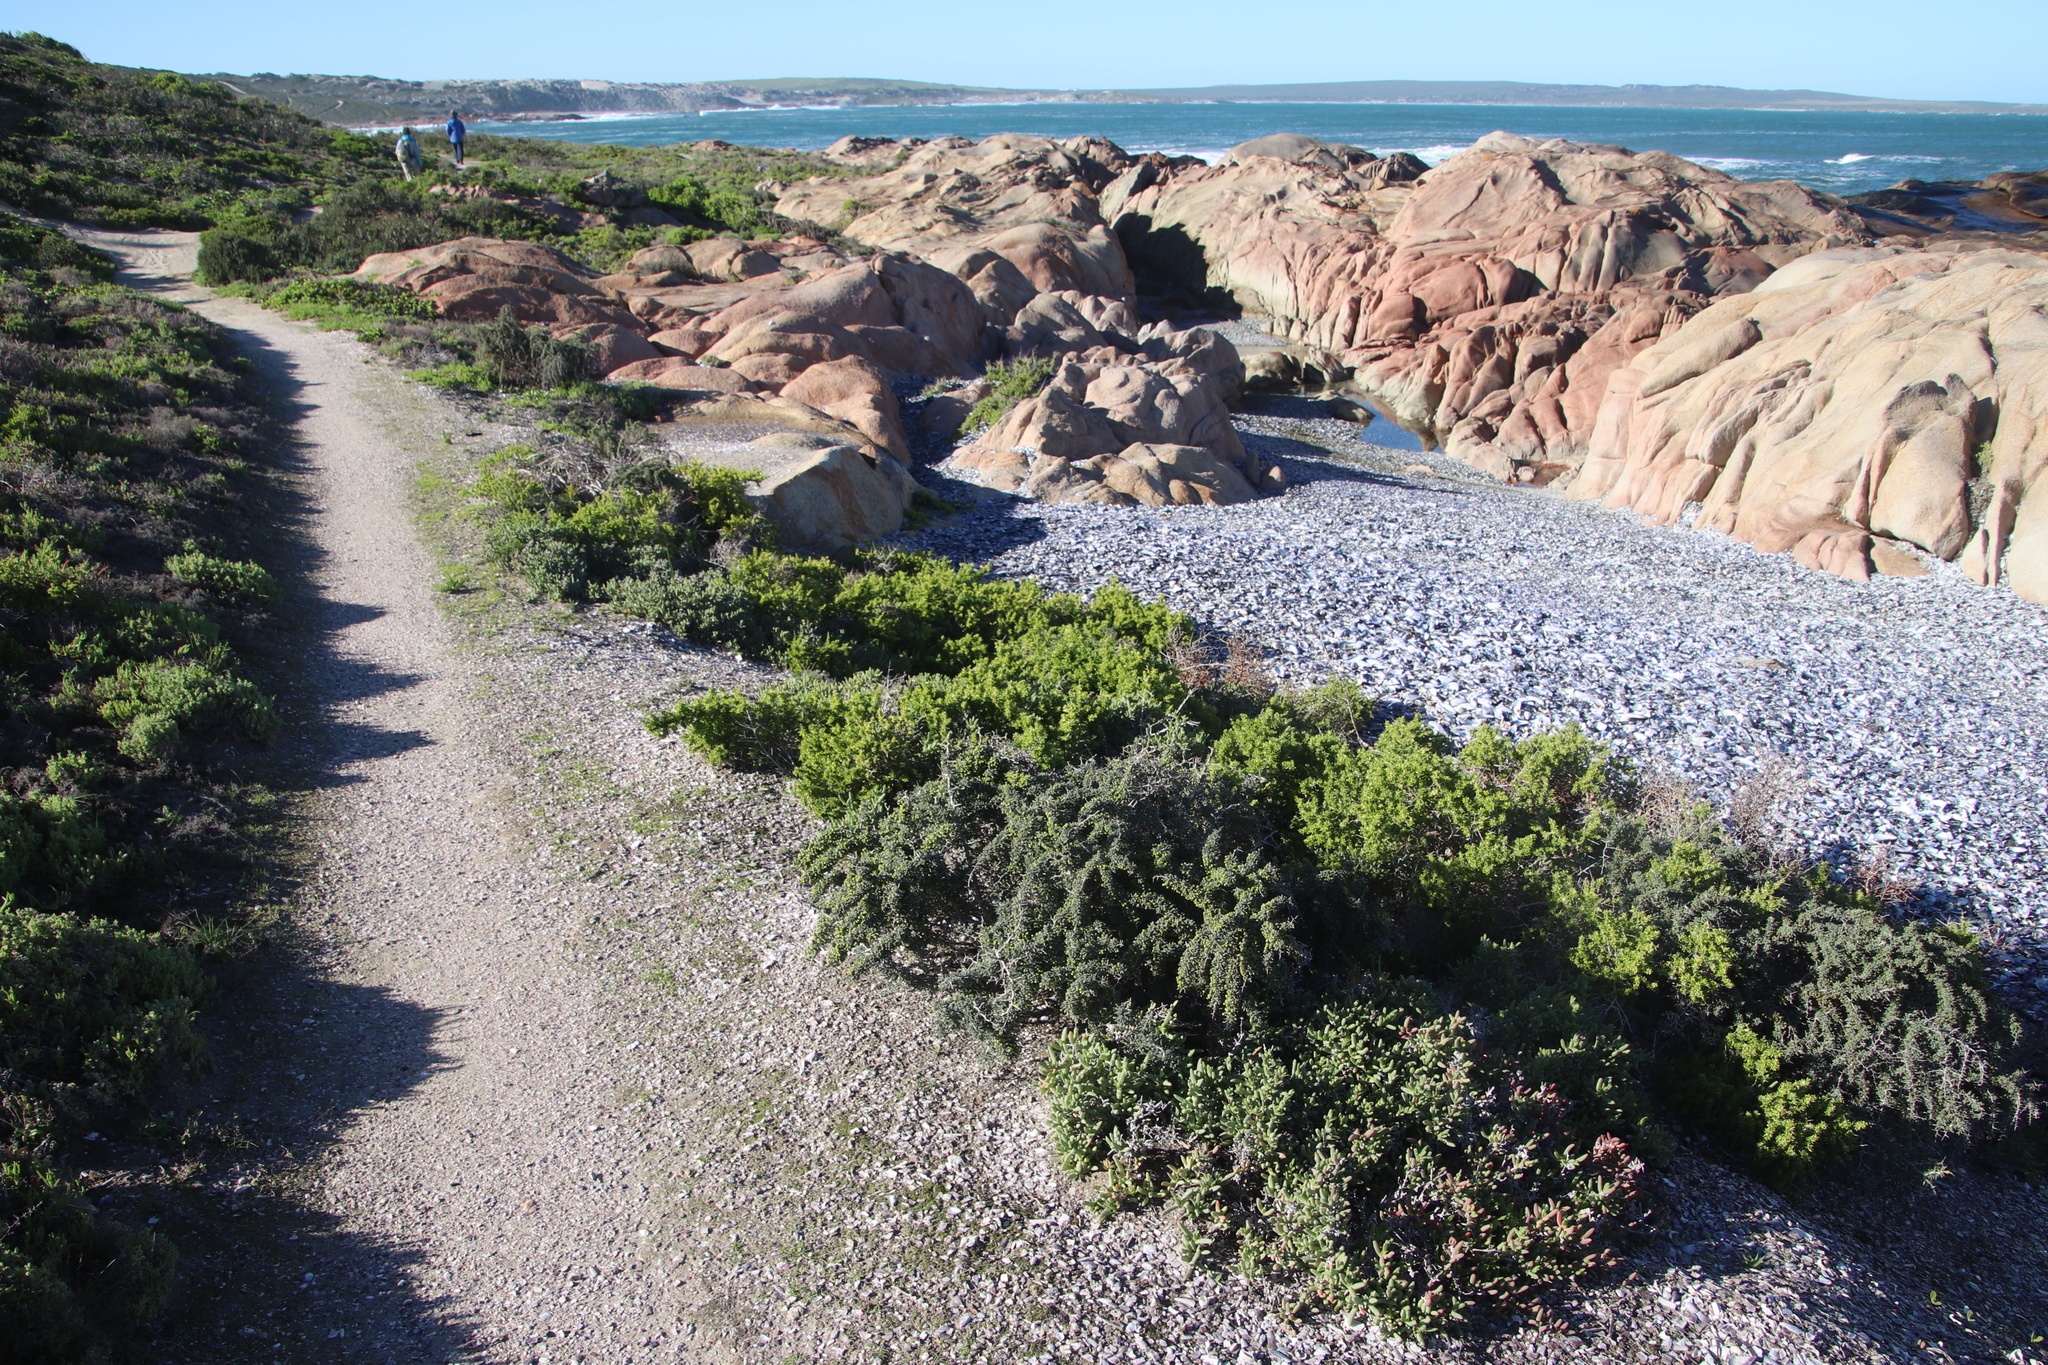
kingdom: Plantae
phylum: Tracheophyta
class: Liliopsida
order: Asparagales
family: Asparagaceae
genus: Asparagus
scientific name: Asparagus capensis
